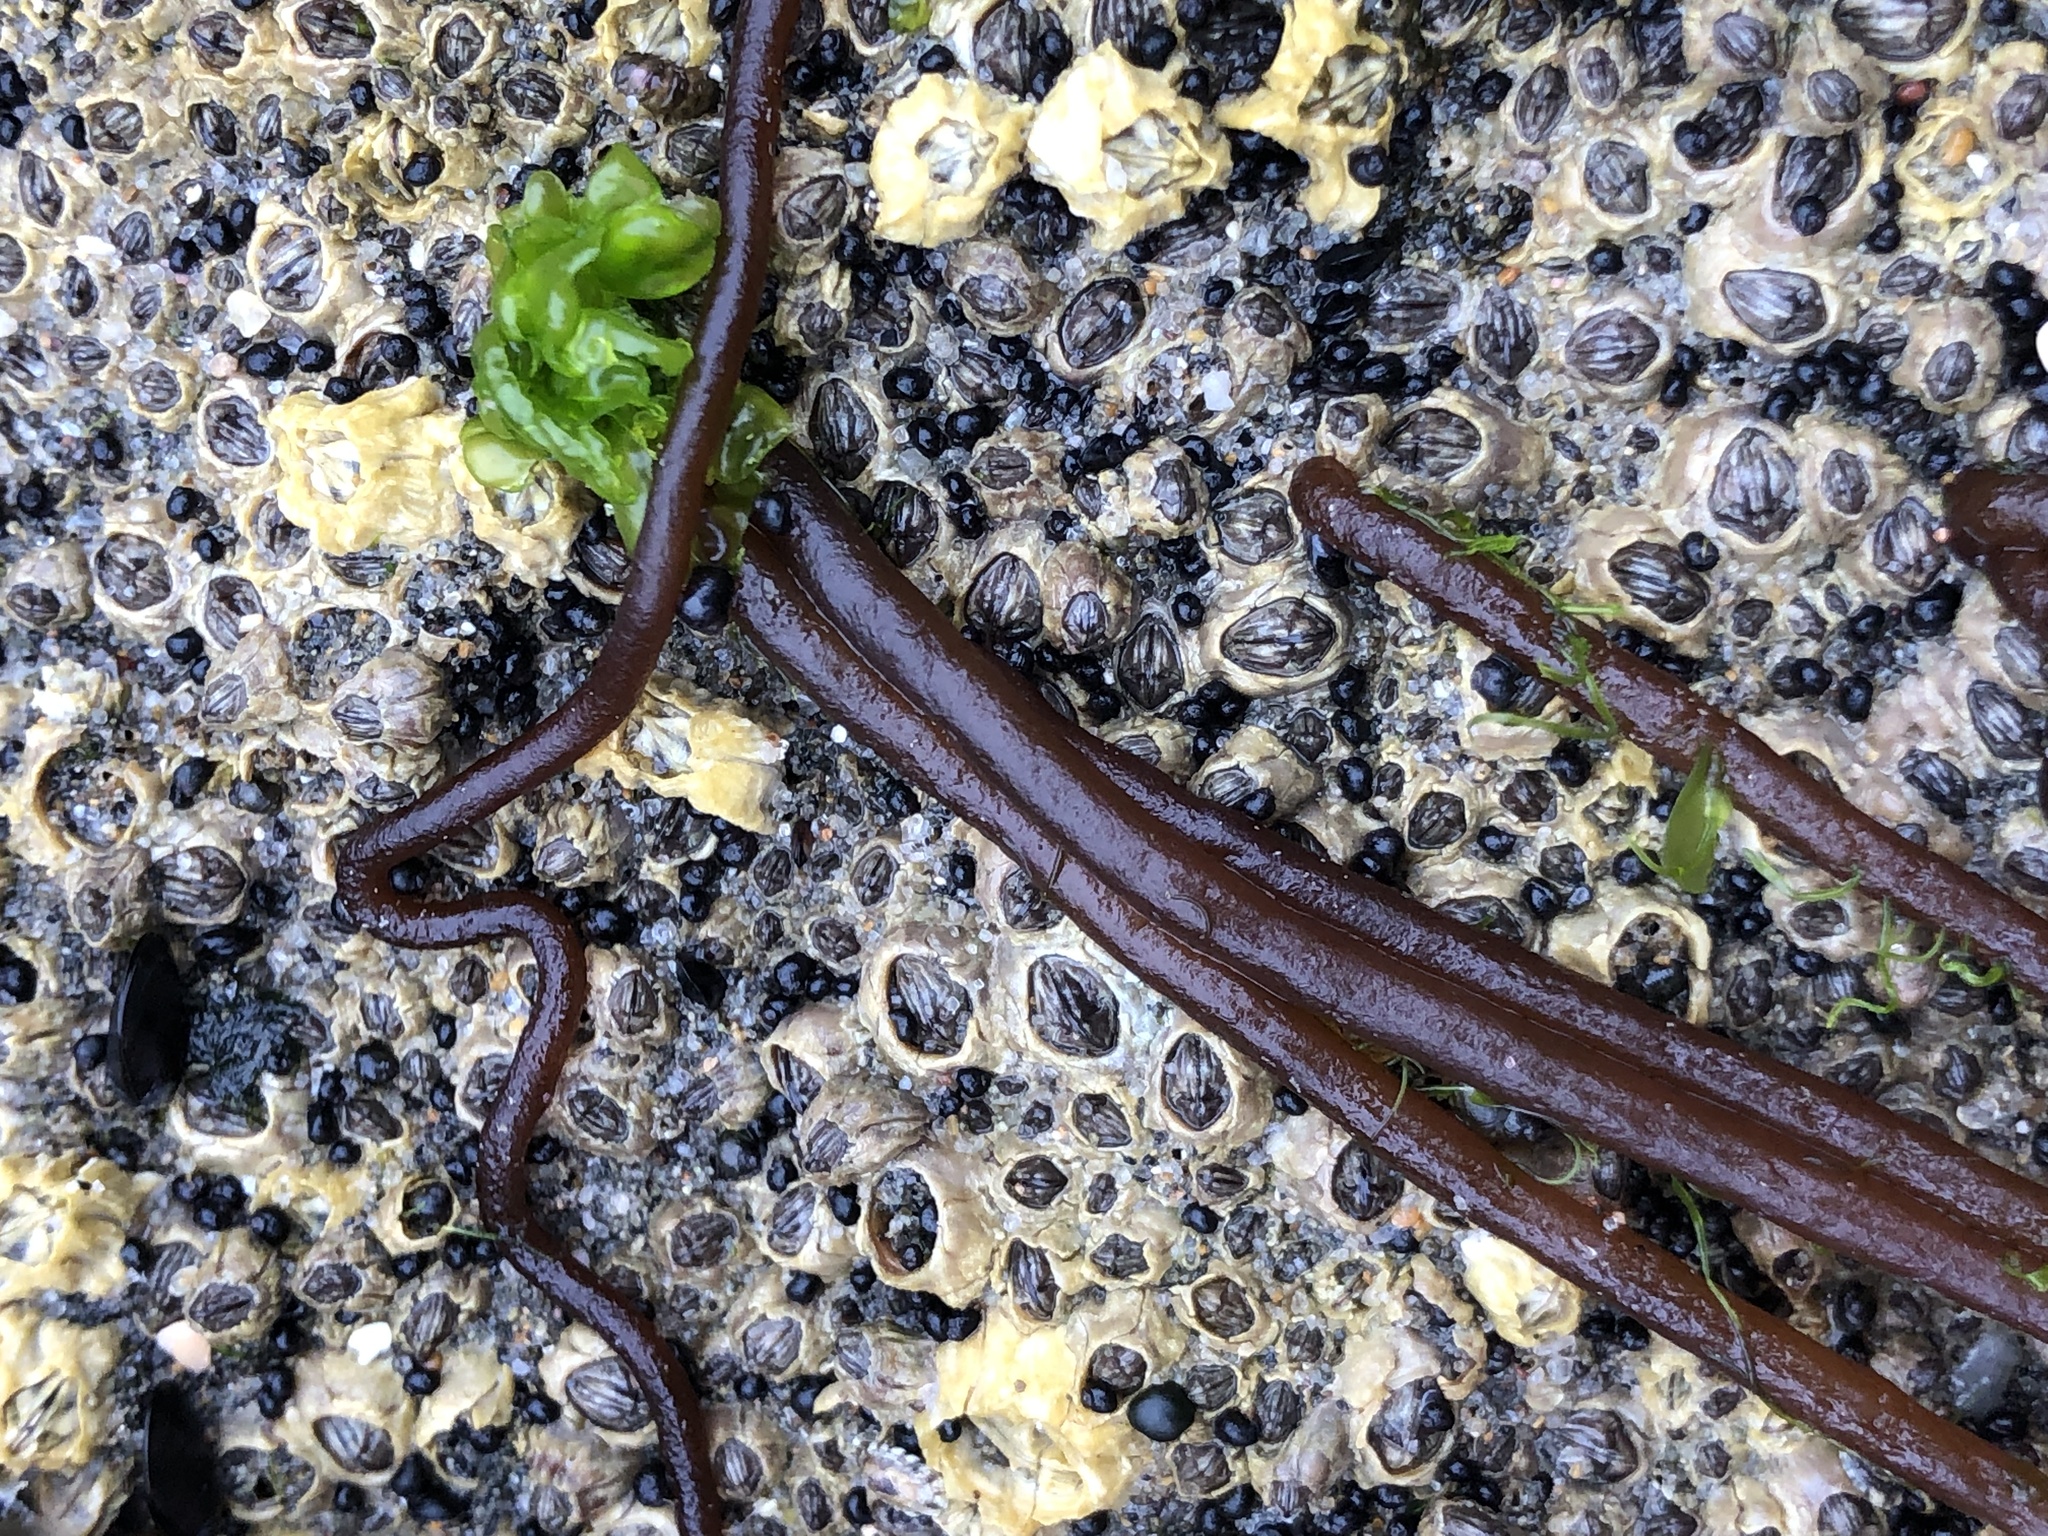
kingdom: Plantae
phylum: Rhodophyta
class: Florideophyceae
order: Nemaliales
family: Nemaliaceae
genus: Nemalion
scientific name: Nemalion elminthoides
